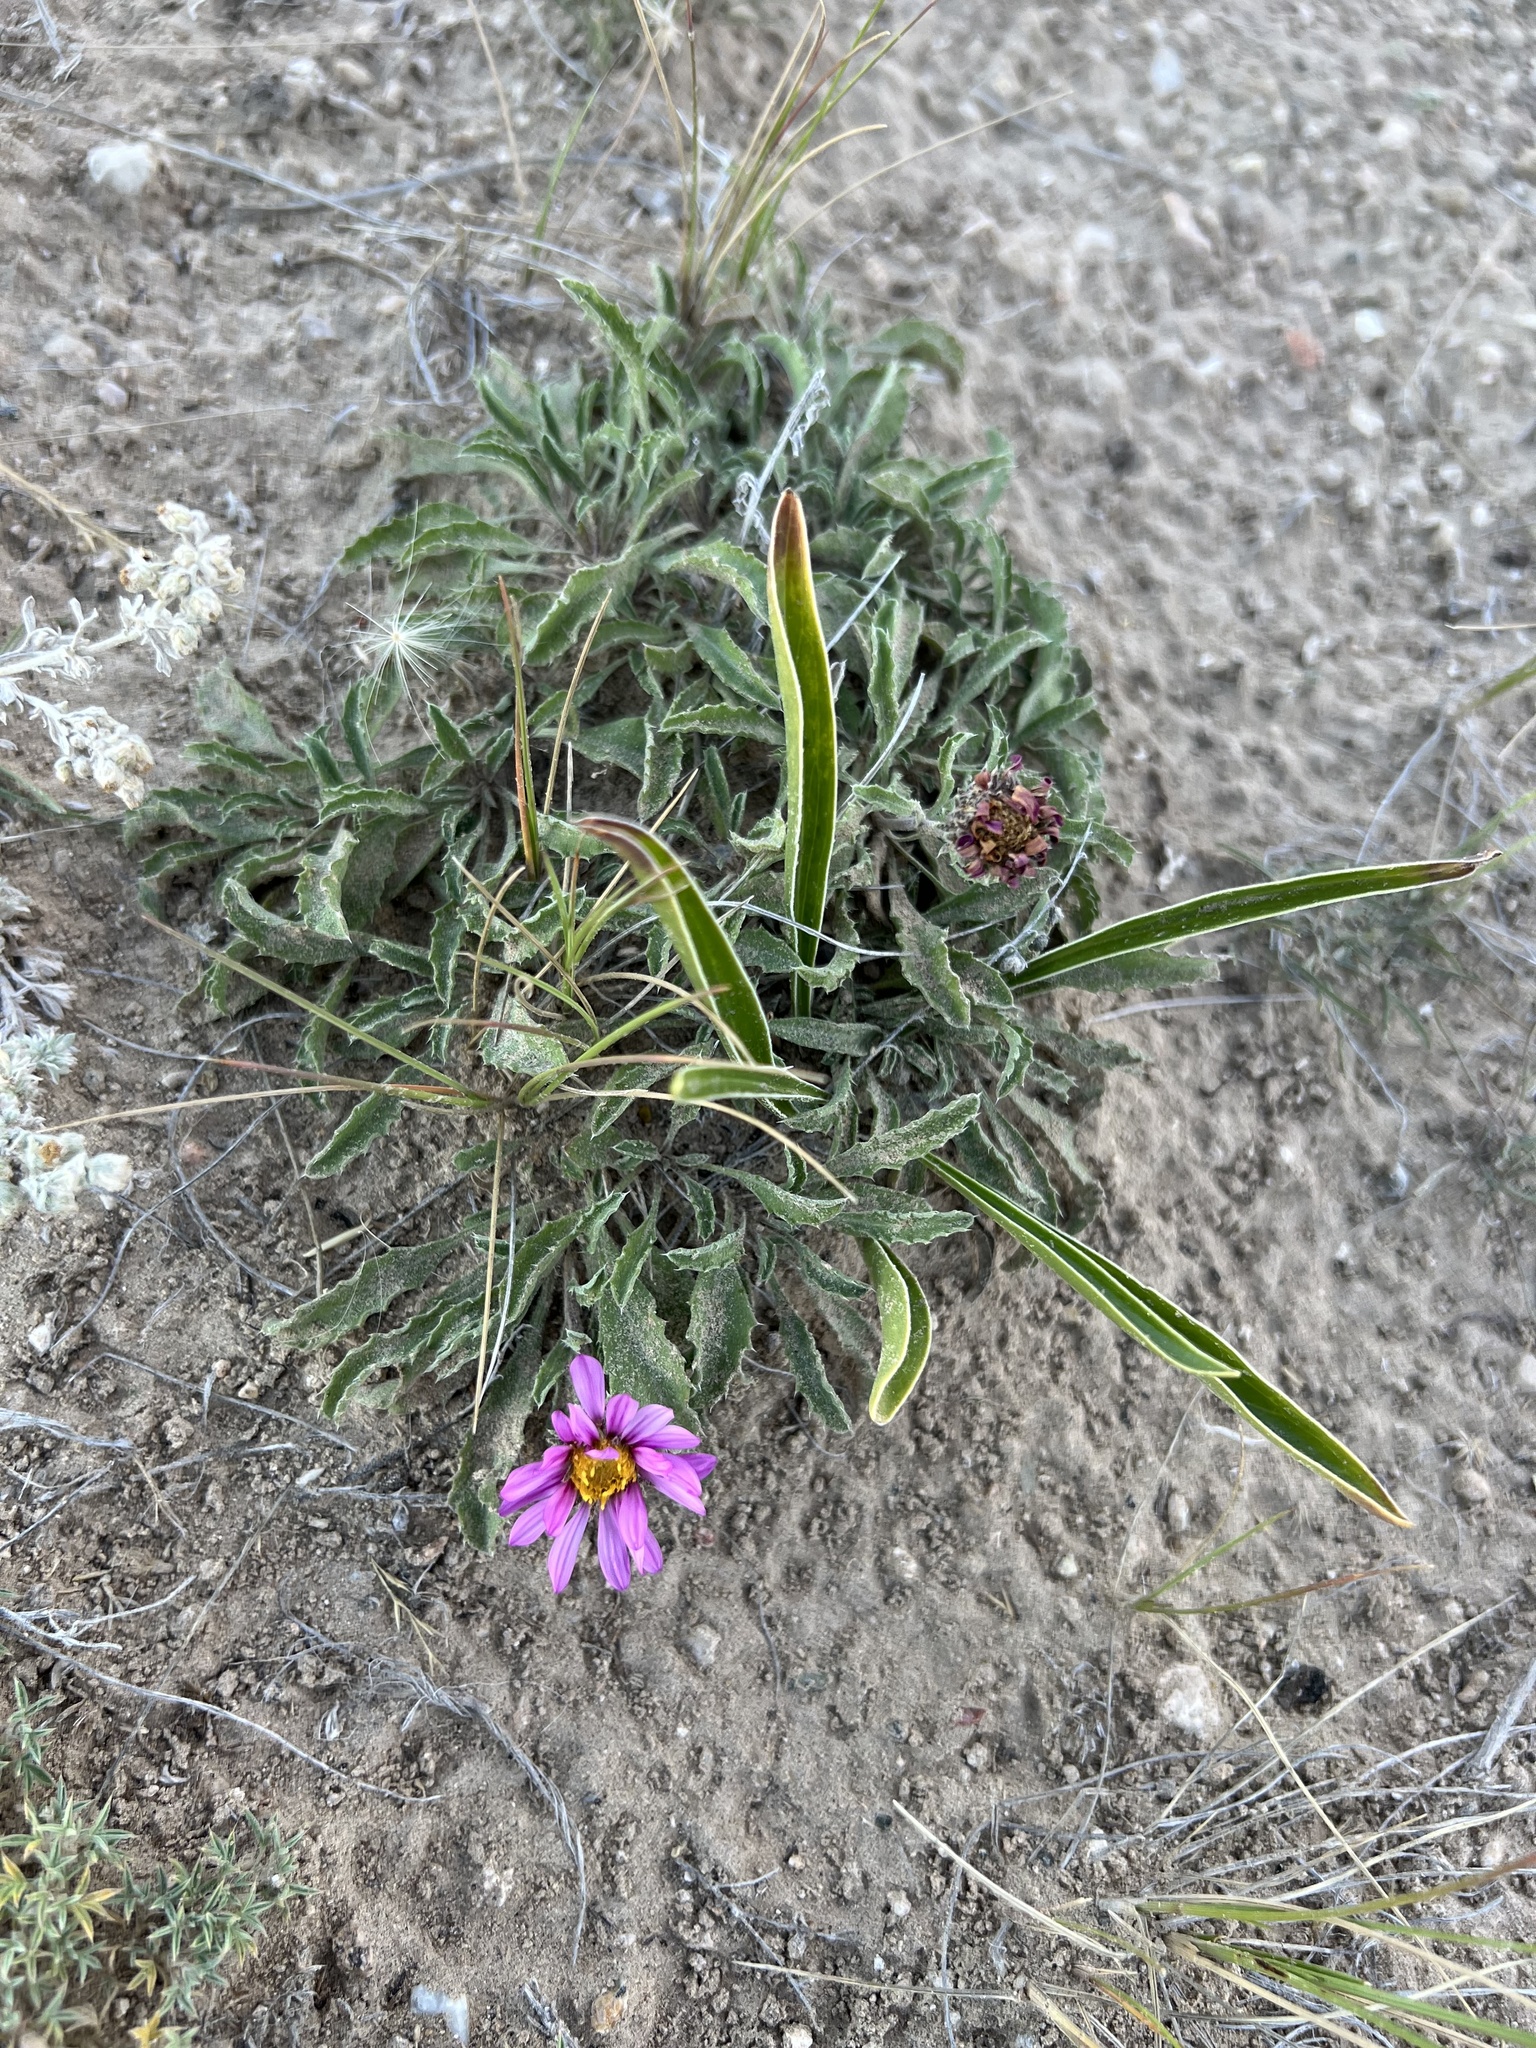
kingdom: Plantae
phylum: Tracheophyta
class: Magnoliopsida
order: Asterales
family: Asteraceae
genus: Xanthisma
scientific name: Xanthisma coloradoense
